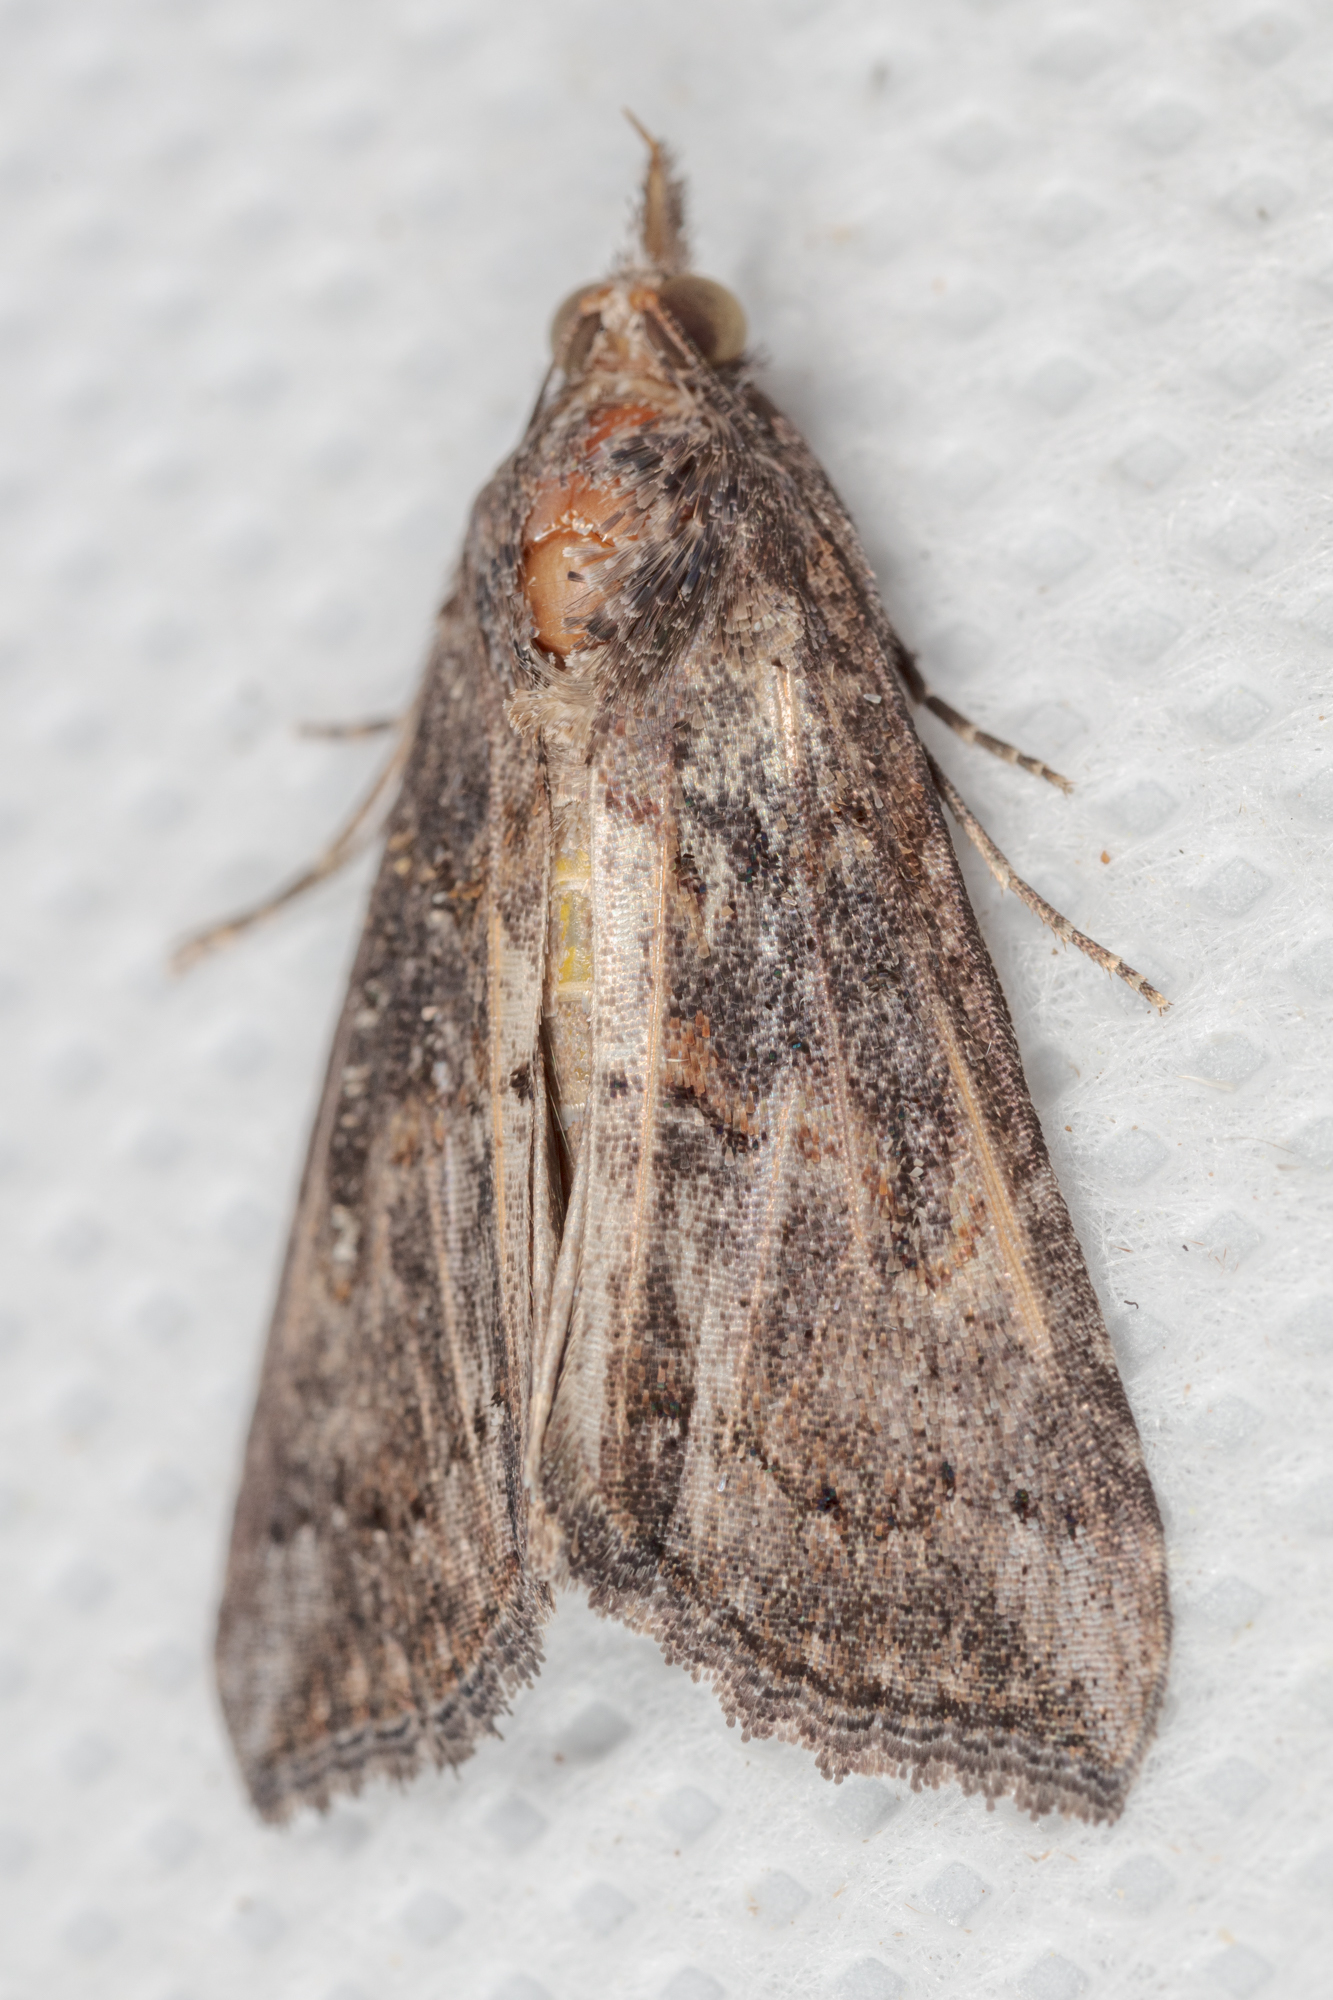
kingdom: Animalia
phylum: Arthropoda
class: Insecta
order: Lepidoptera
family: Erebidae
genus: Hypena
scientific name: Hypena scabra
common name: Green cloverworm
